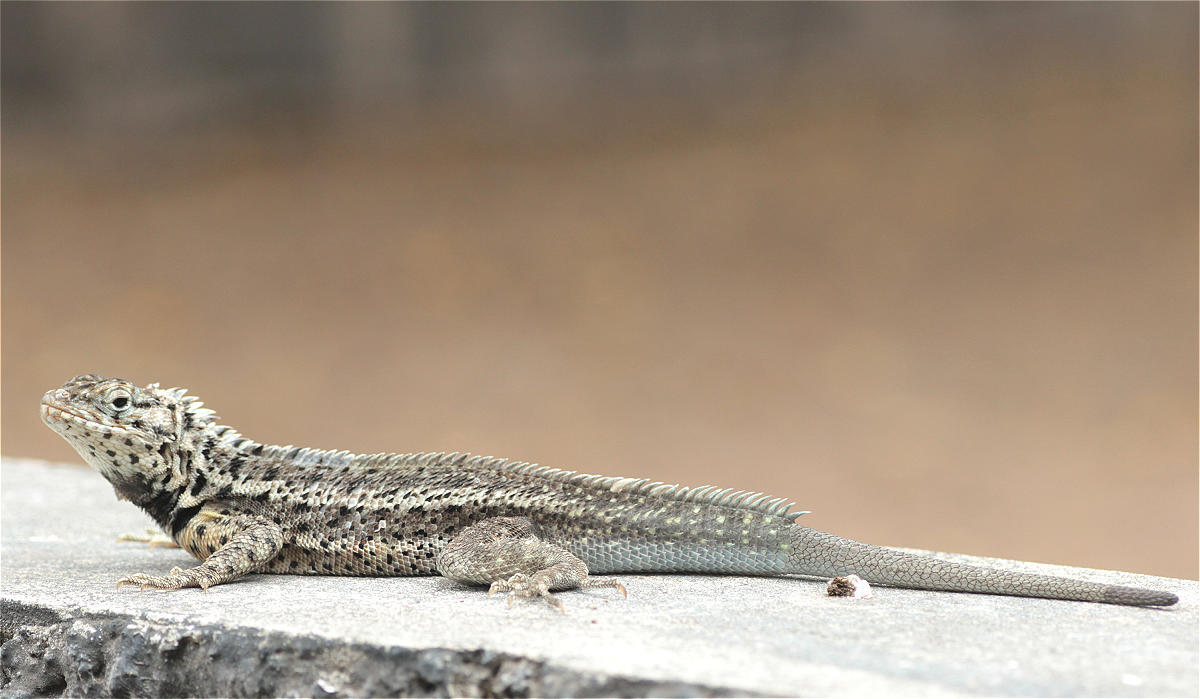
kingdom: Animalia
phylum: Chordata
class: Squamata
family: Tropiduridae
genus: Microlophus
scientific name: Microlophus albemarlensis
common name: Galapagos lava lizard
